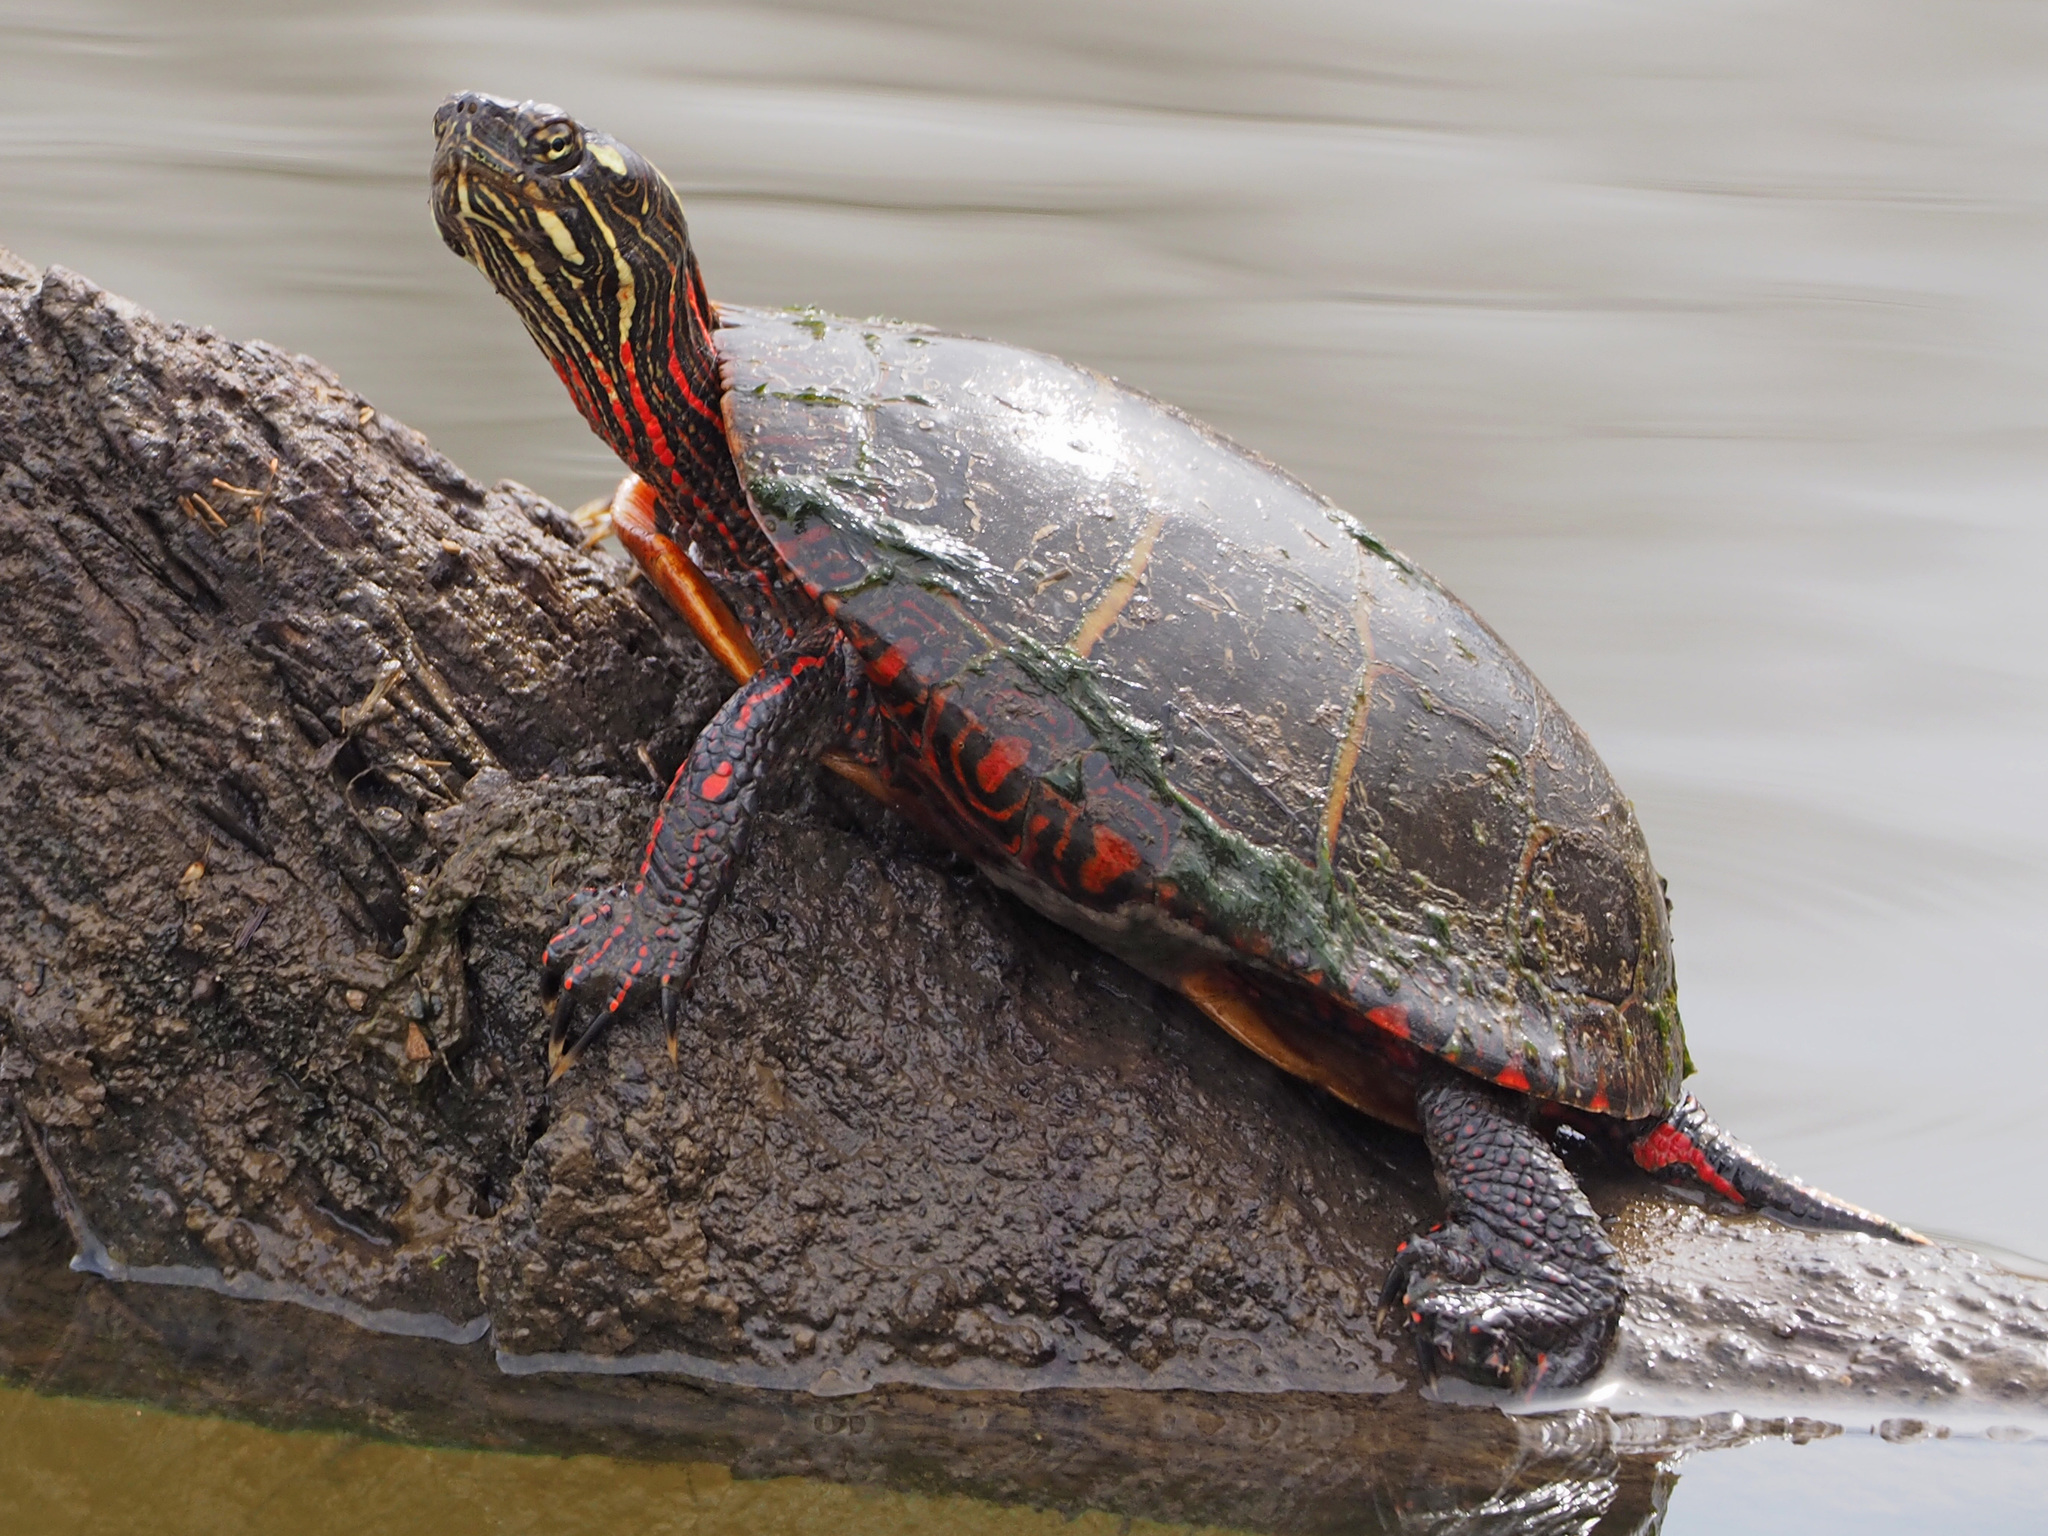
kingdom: Animalia
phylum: Chordata
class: Testudines
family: Emydidae
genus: Chrysemys
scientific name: Chrysemys picta
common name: Painted turtle
